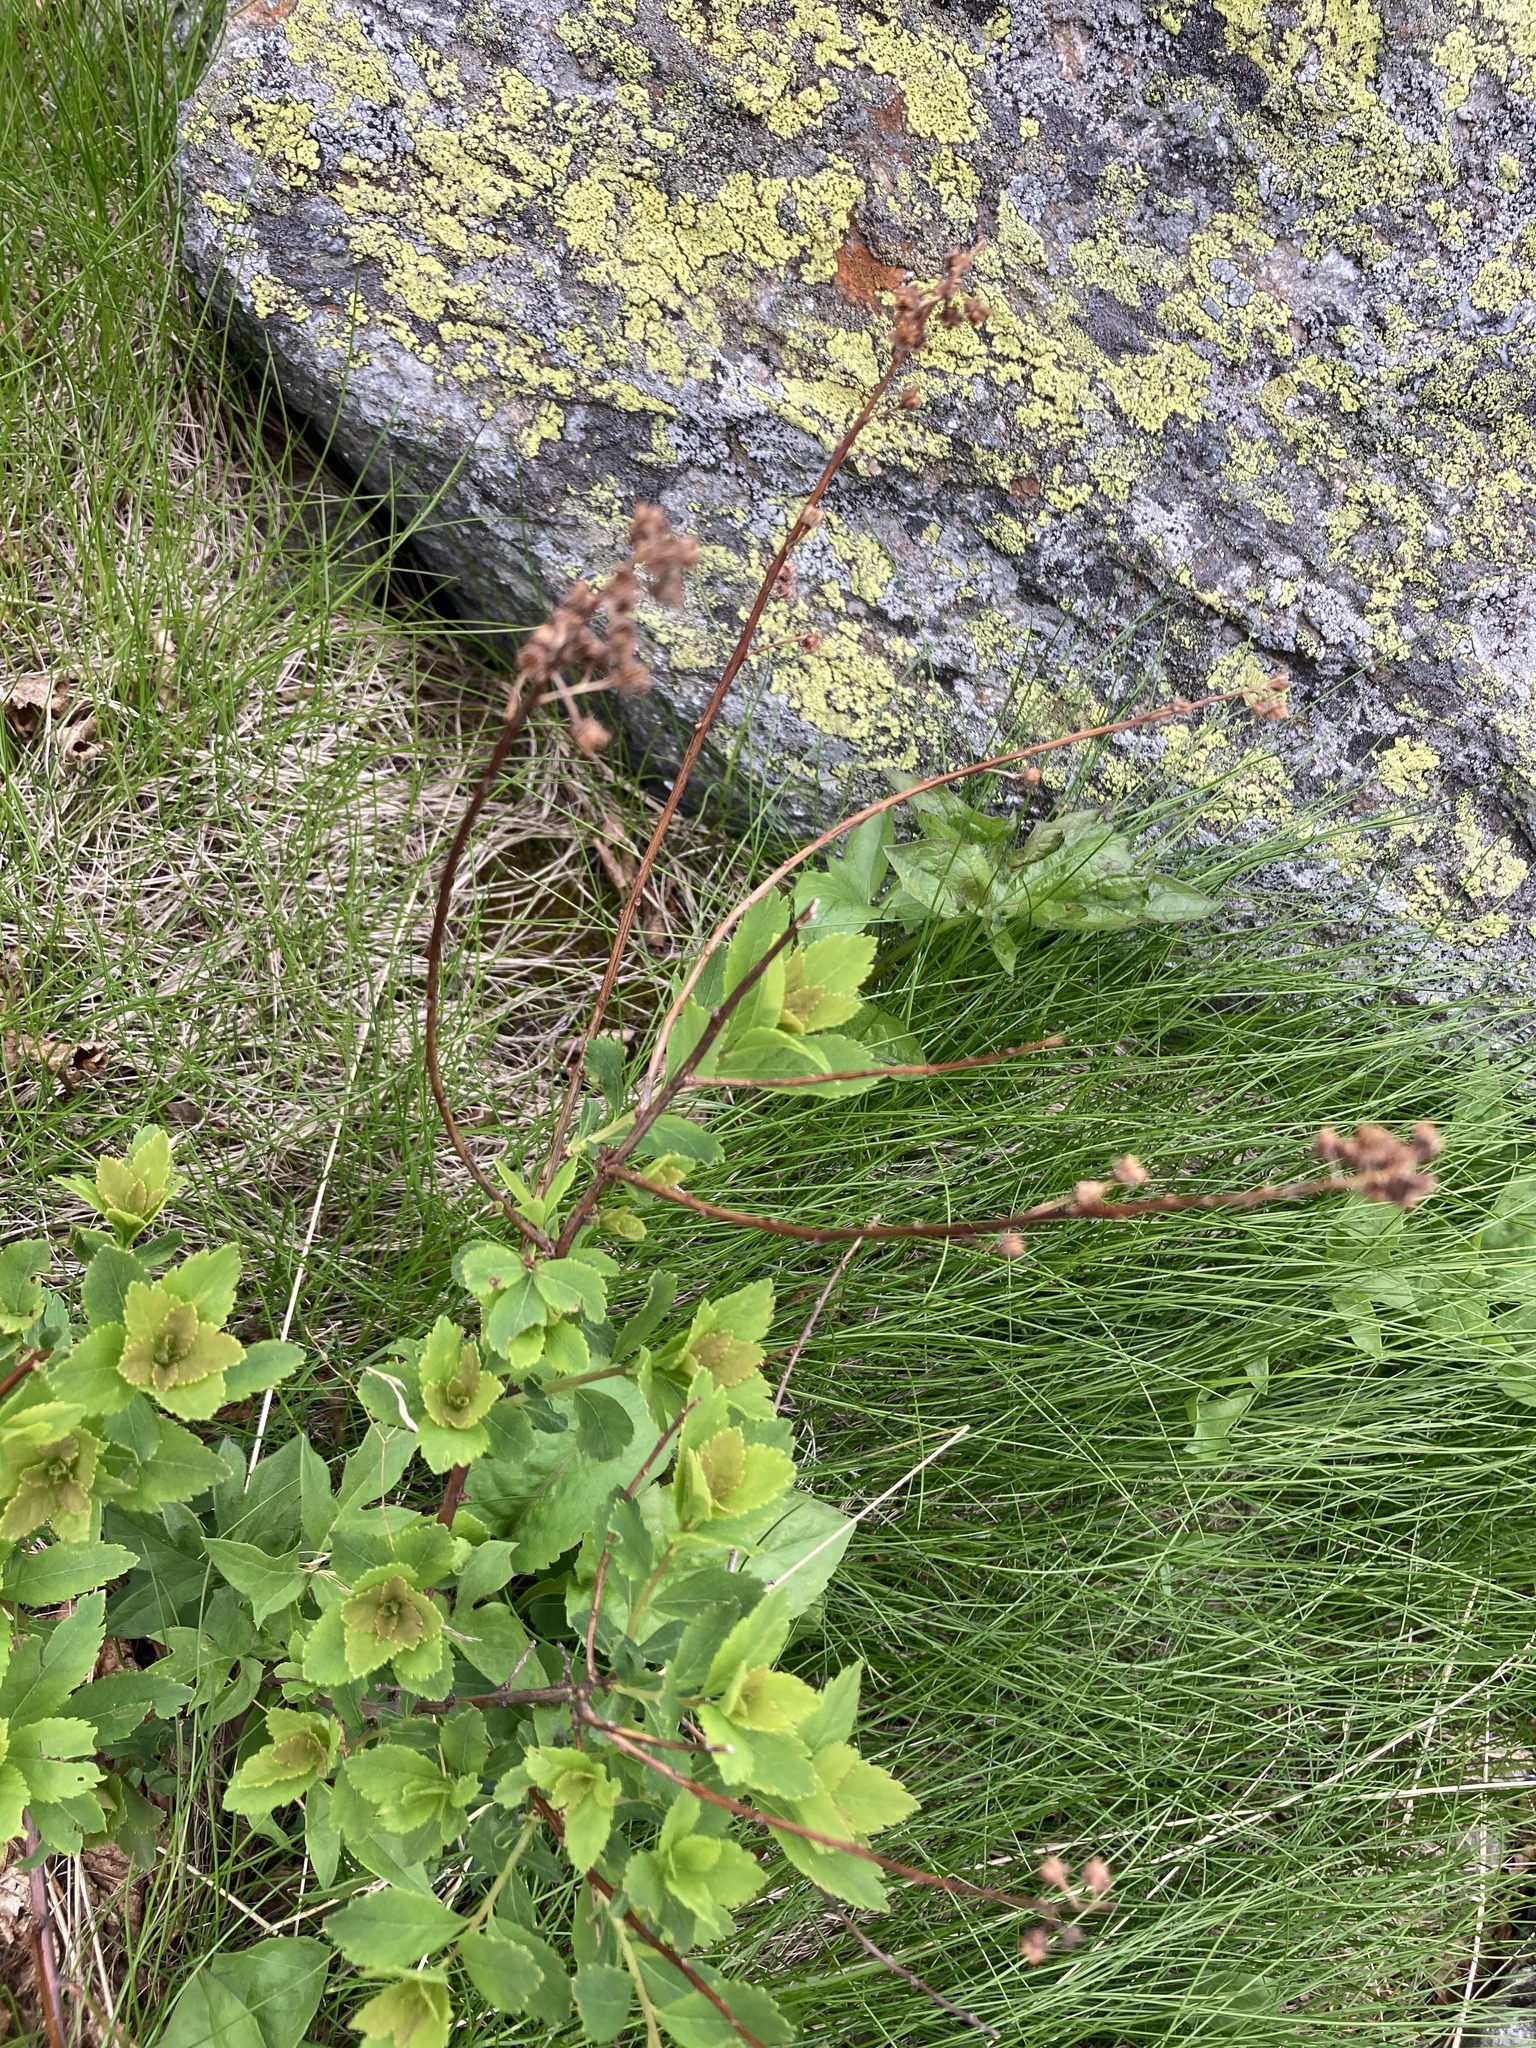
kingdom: Plantae
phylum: Tracheophyta
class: Magnoliopsida
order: Rosales
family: Rosaceae
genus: Spiraea
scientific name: Spiraea alba
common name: Pale bridewort
